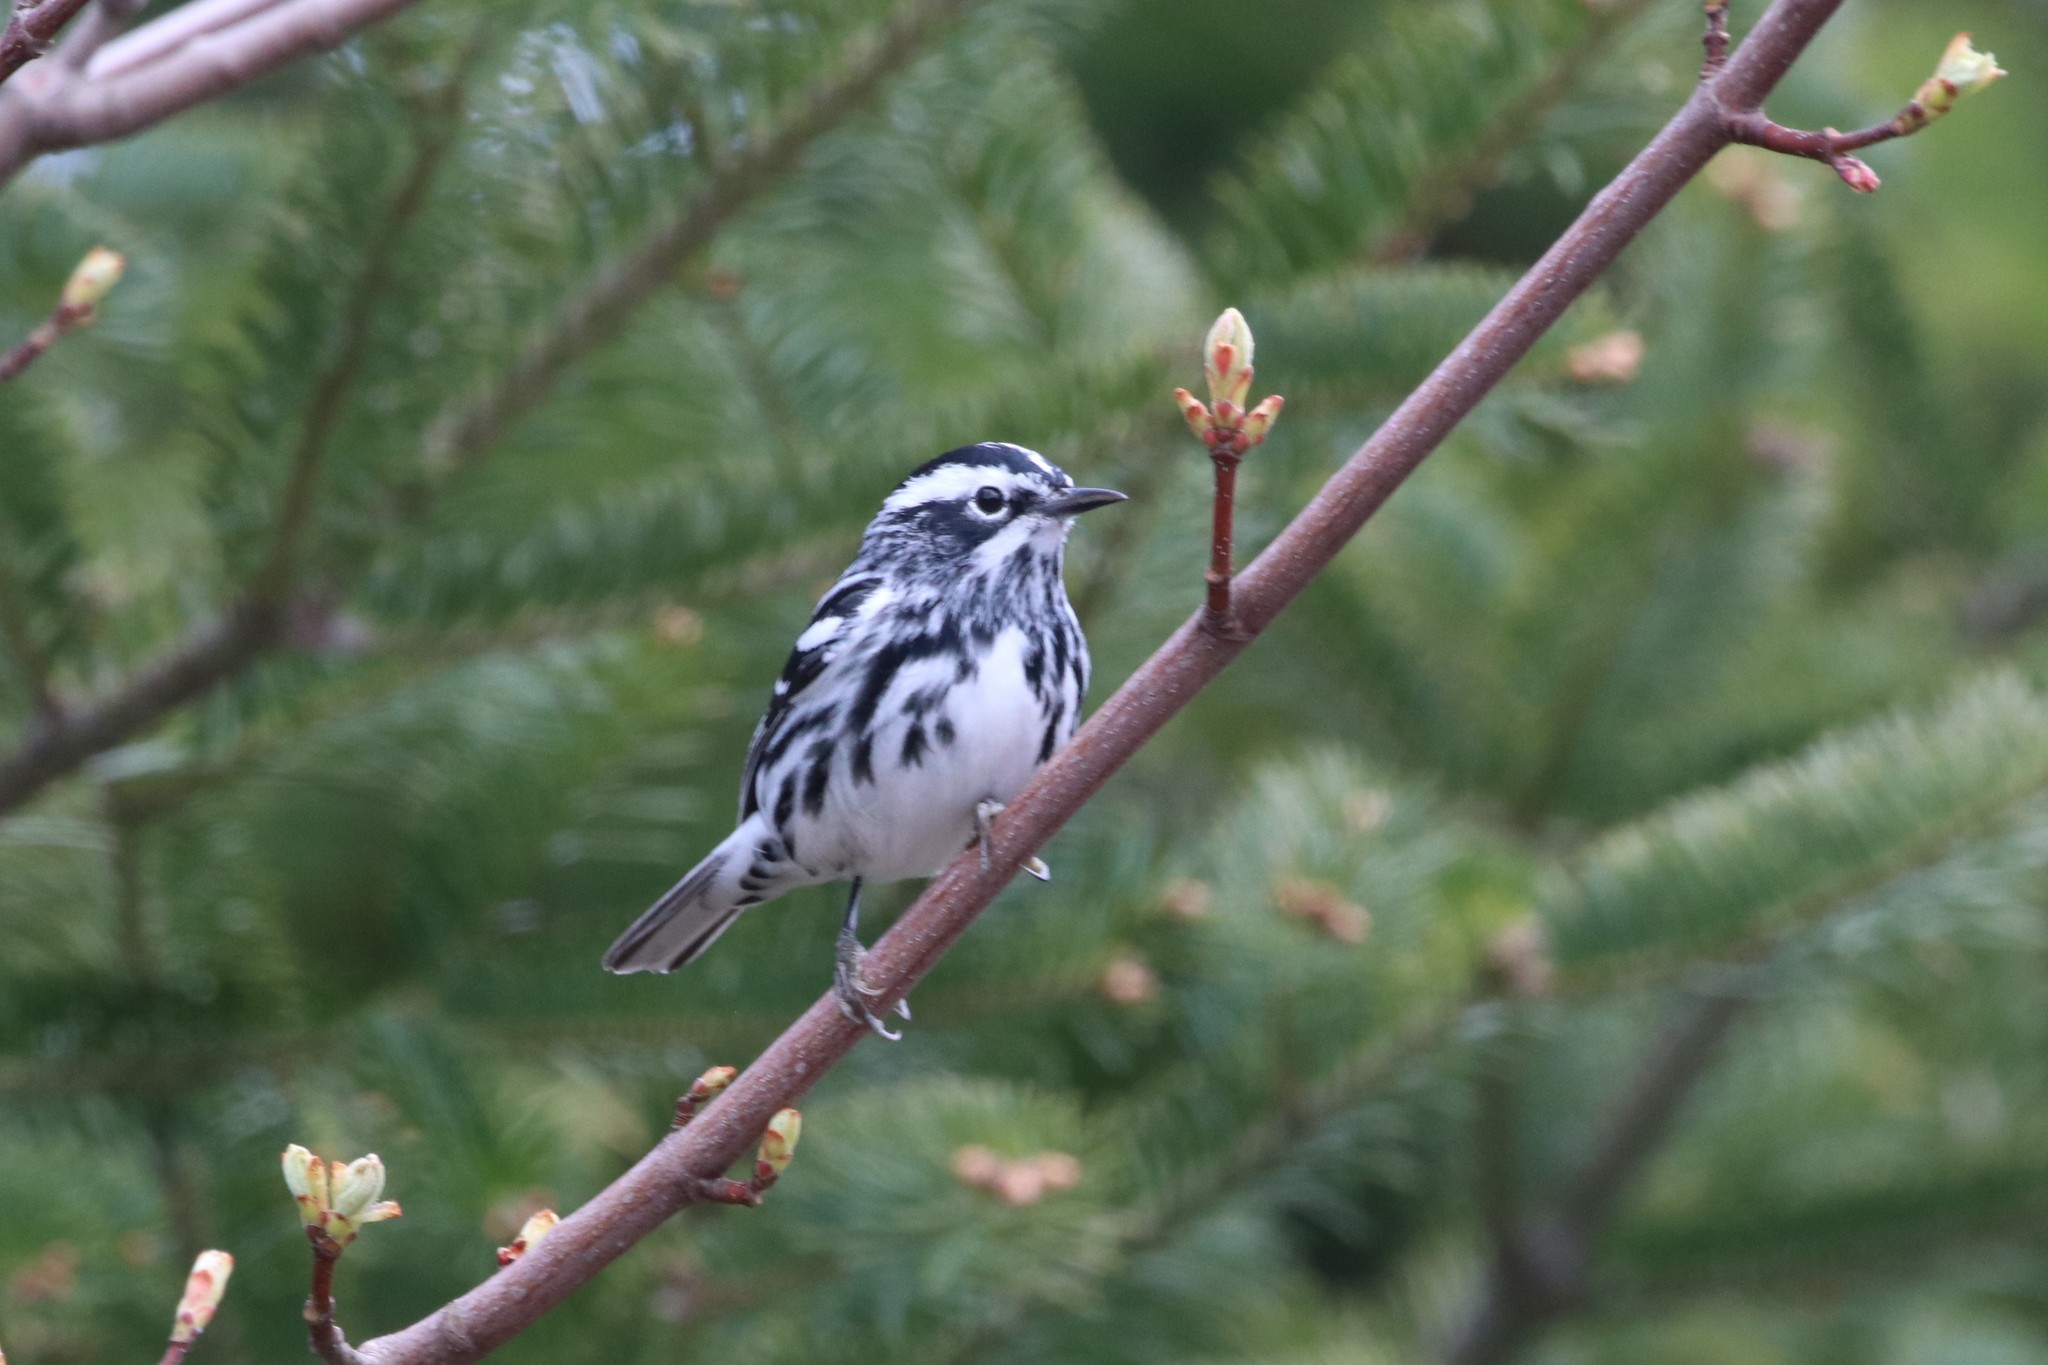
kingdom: Animalia
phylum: Chordata
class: Aves
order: Passeriformes
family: Parulidae
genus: Mniotilta
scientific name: Mniotilta varia
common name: Black-and-white warbler
